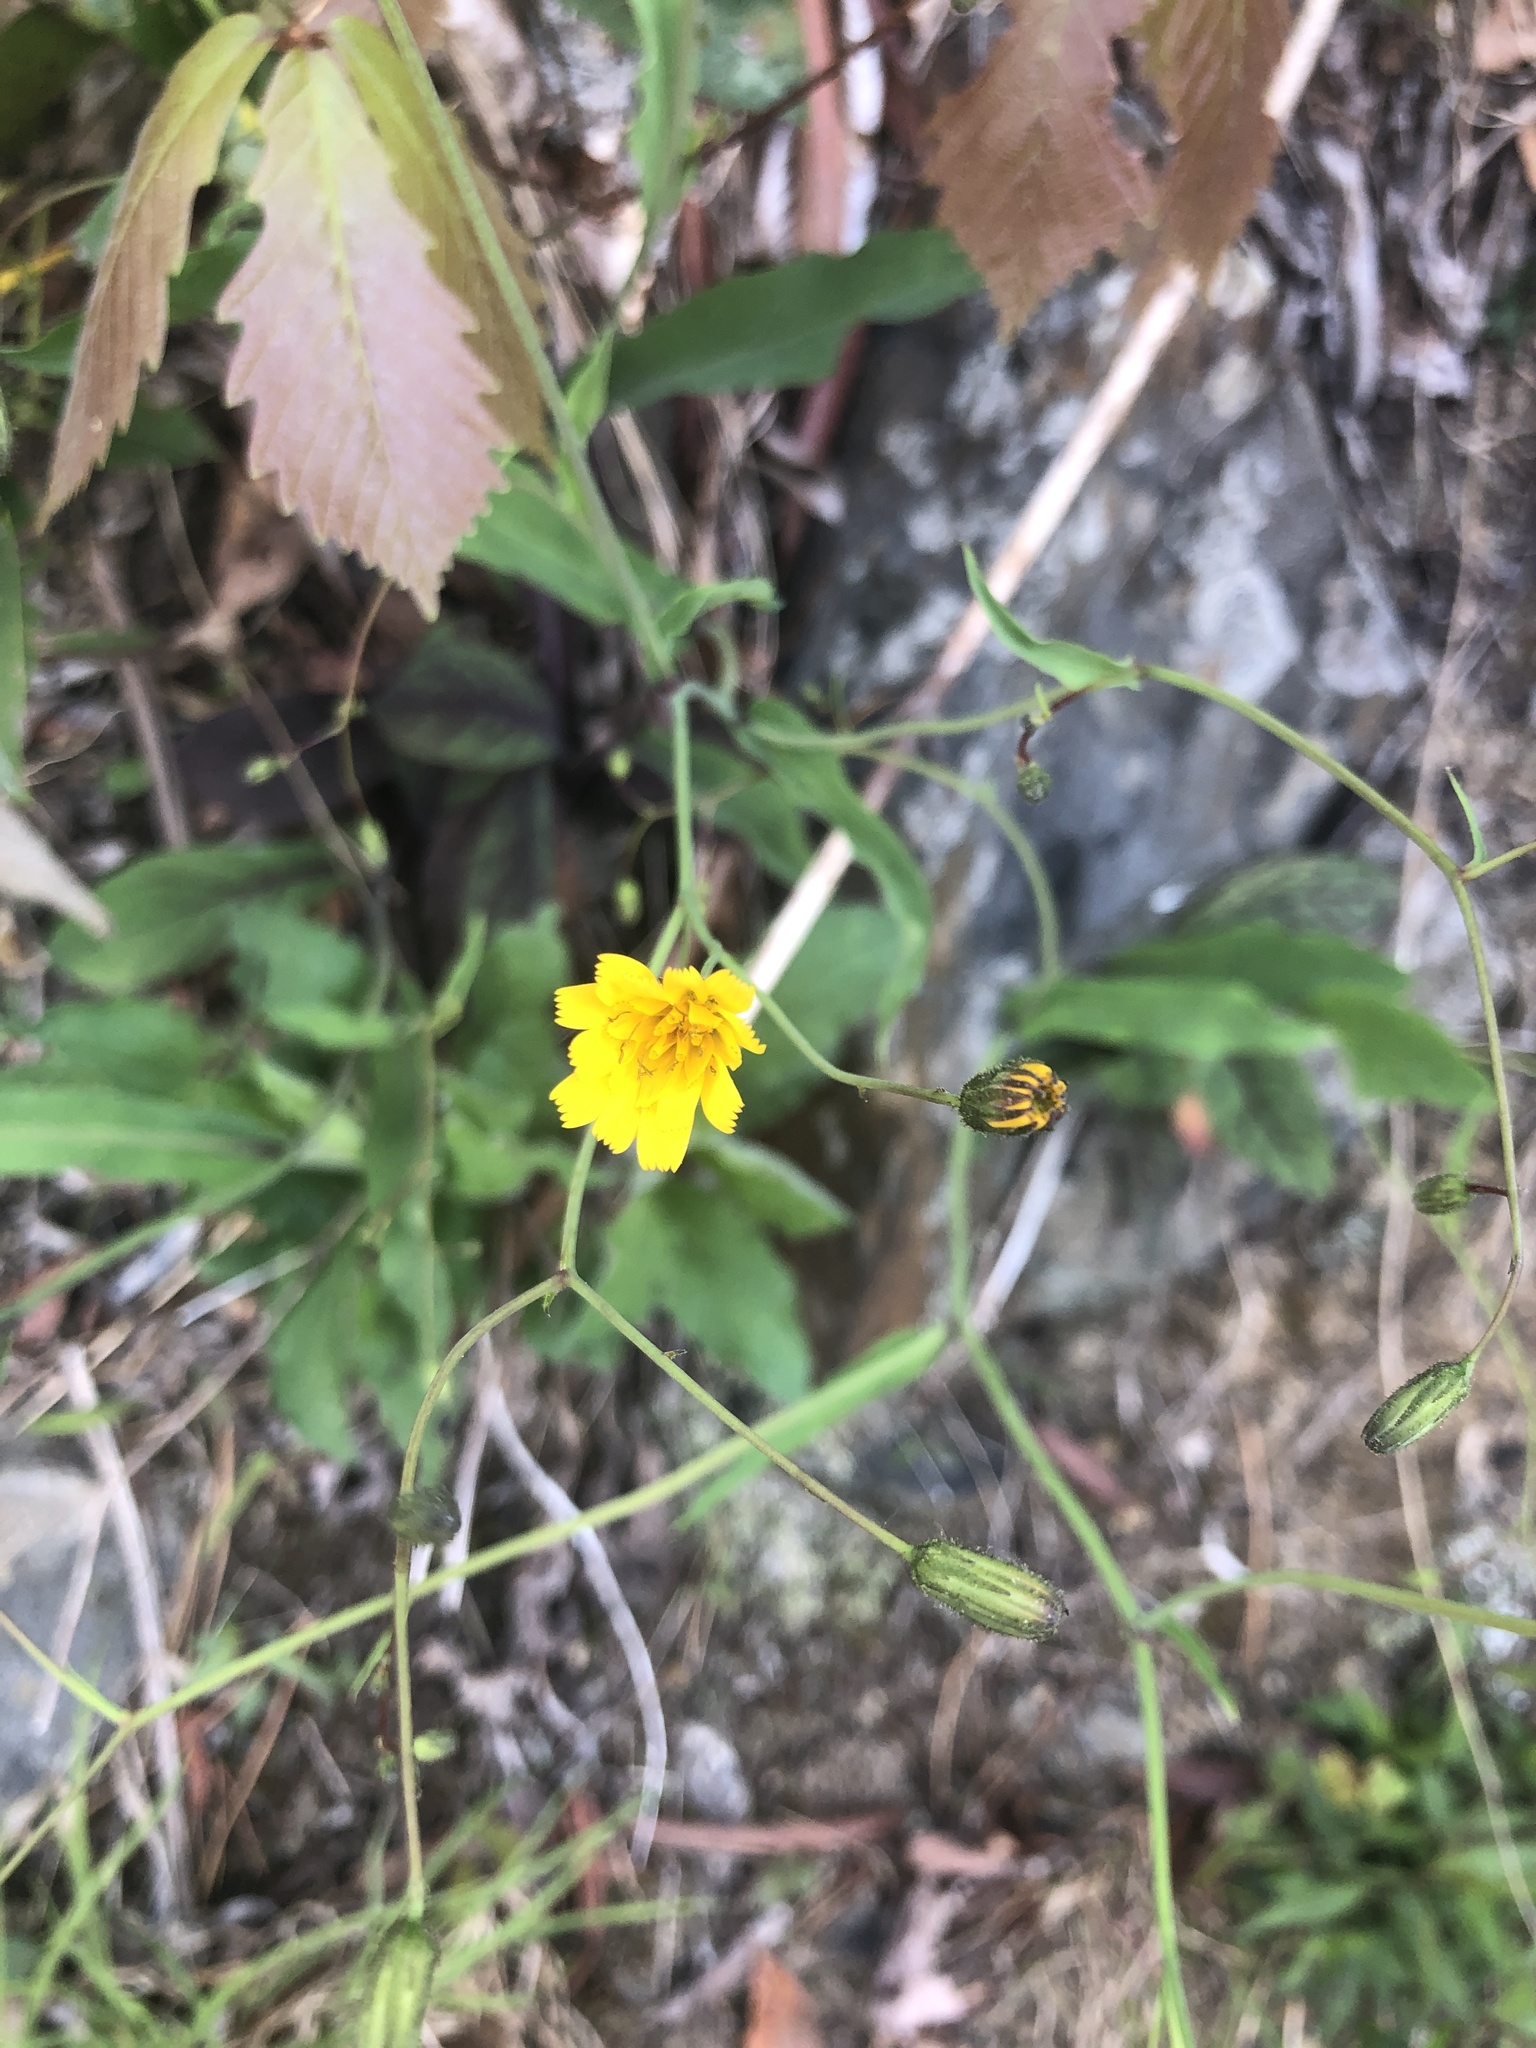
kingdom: Plantae
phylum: Tracheophyta
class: Magnoliopsida
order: Asterales
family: Asteraceae
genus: Hieracium
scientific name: Hieracium venosum
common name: Rattlesnake hawkweed
